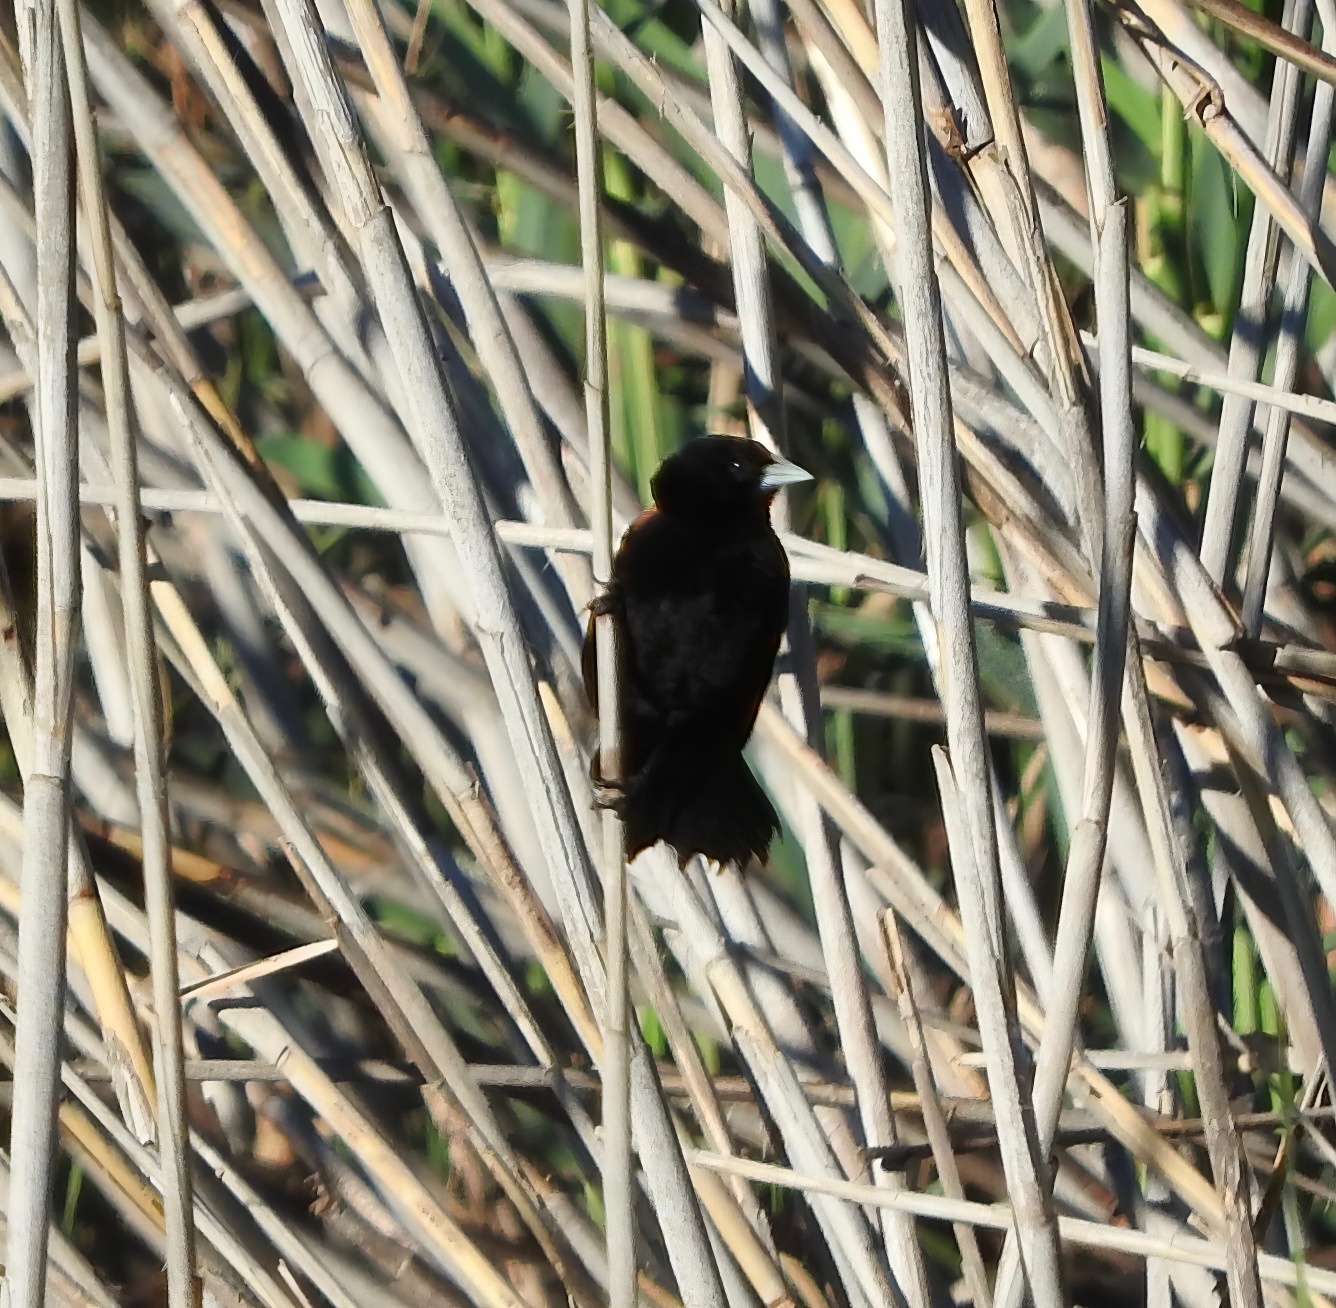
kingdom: Animalia
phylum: Chordata
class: Aves
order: Passeriformes
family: Ploceidae
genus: Euplectes
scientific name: Euplectes axillaris
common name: Fan-tailed widowbird
